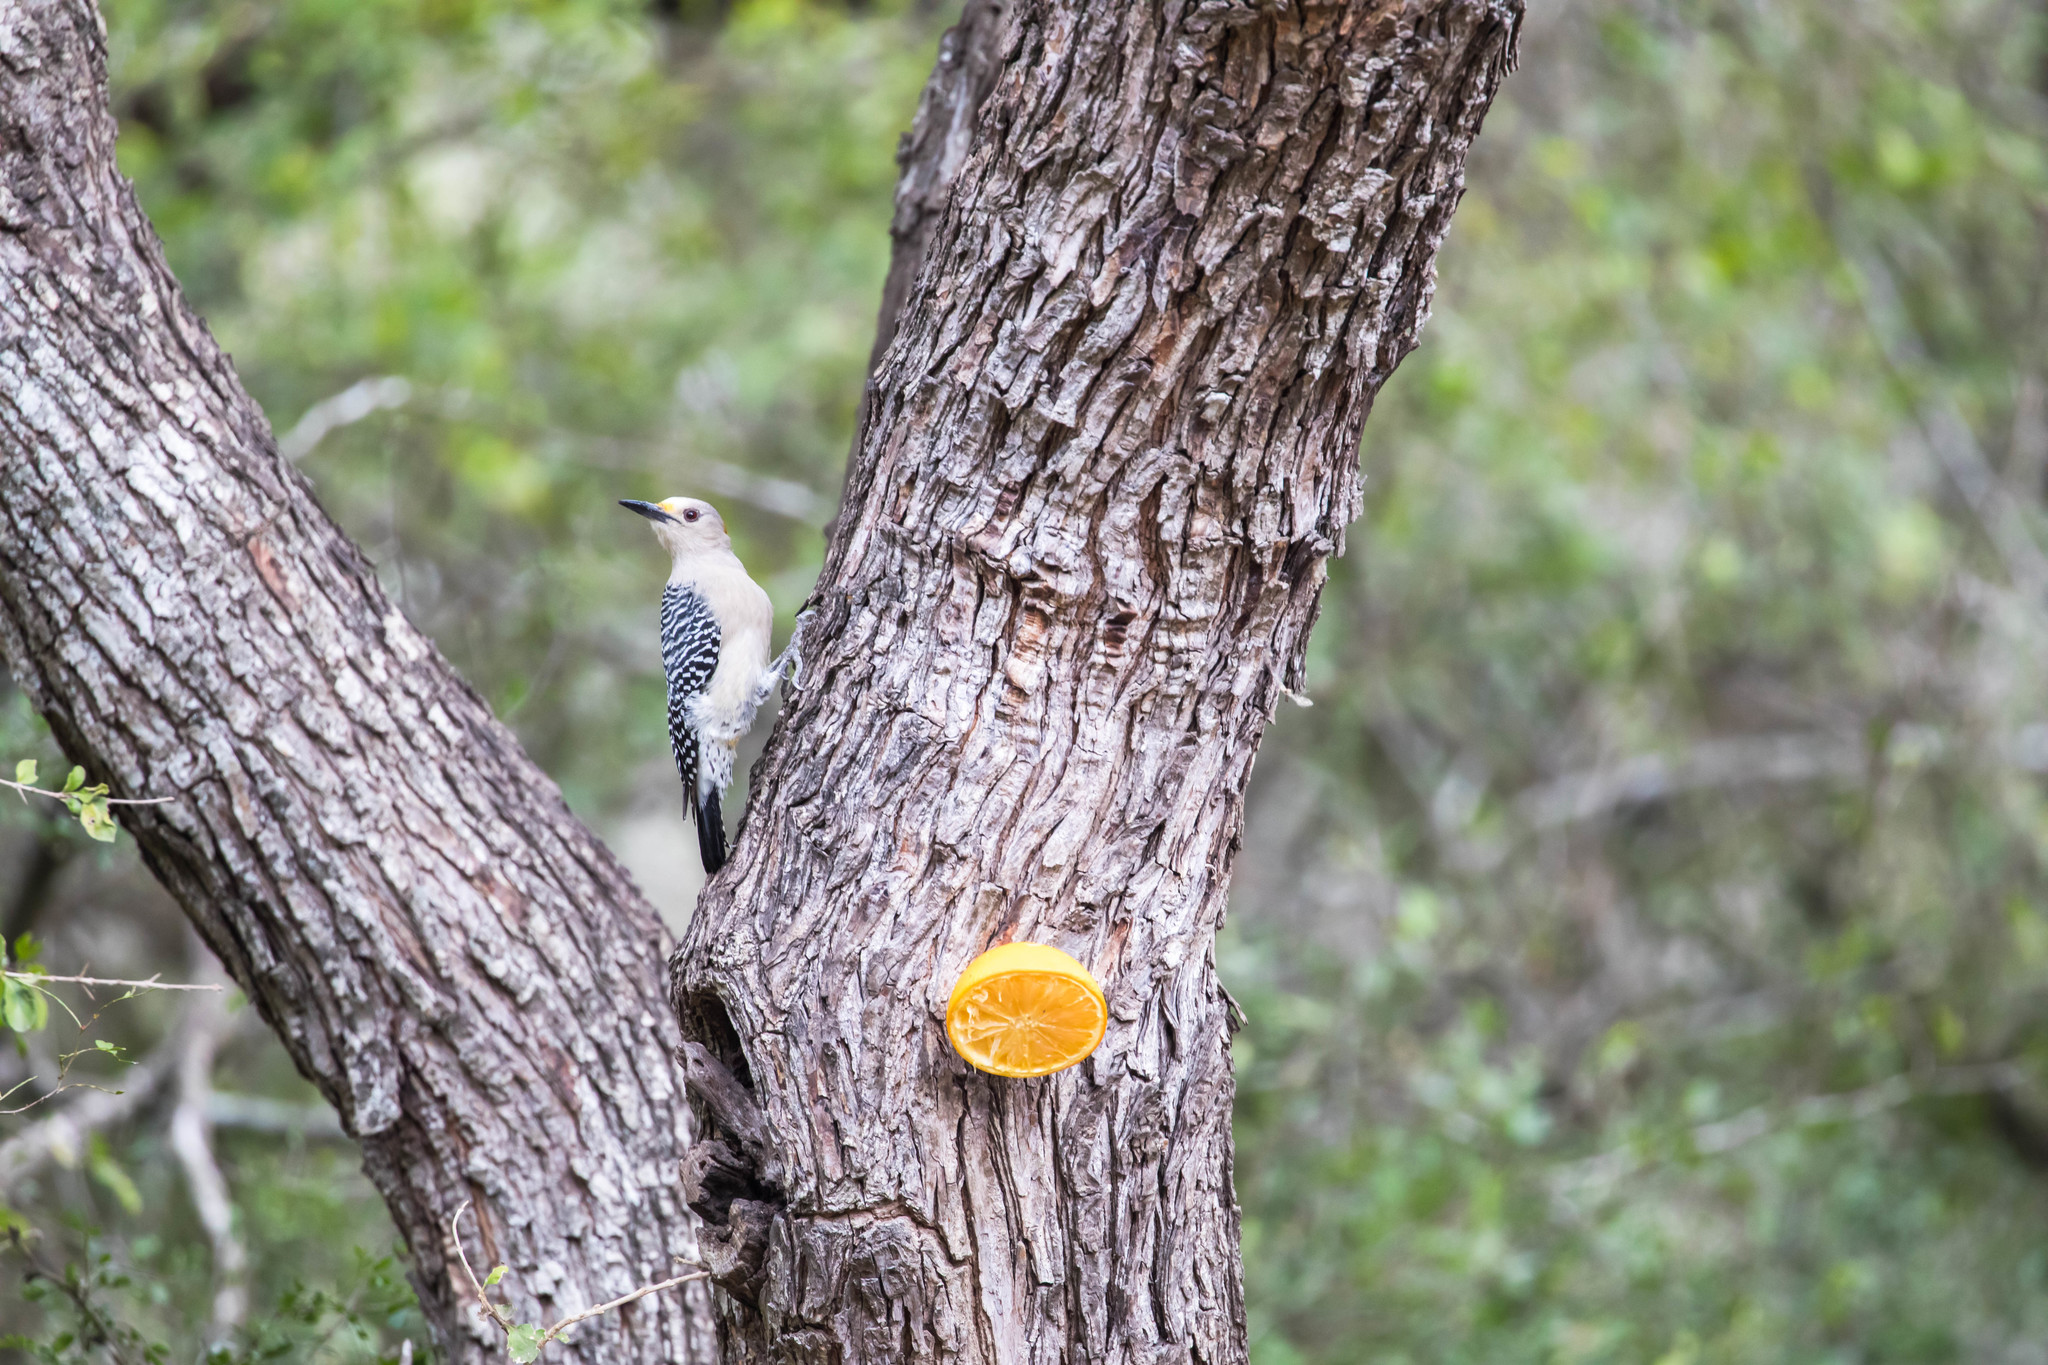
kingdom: Animalia
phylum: Chordata
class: Aves
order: Piciformes
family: Picidae
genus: Melanerpes
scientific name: Melanerpes aurifrons
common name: Golden-fronted woodpecker
